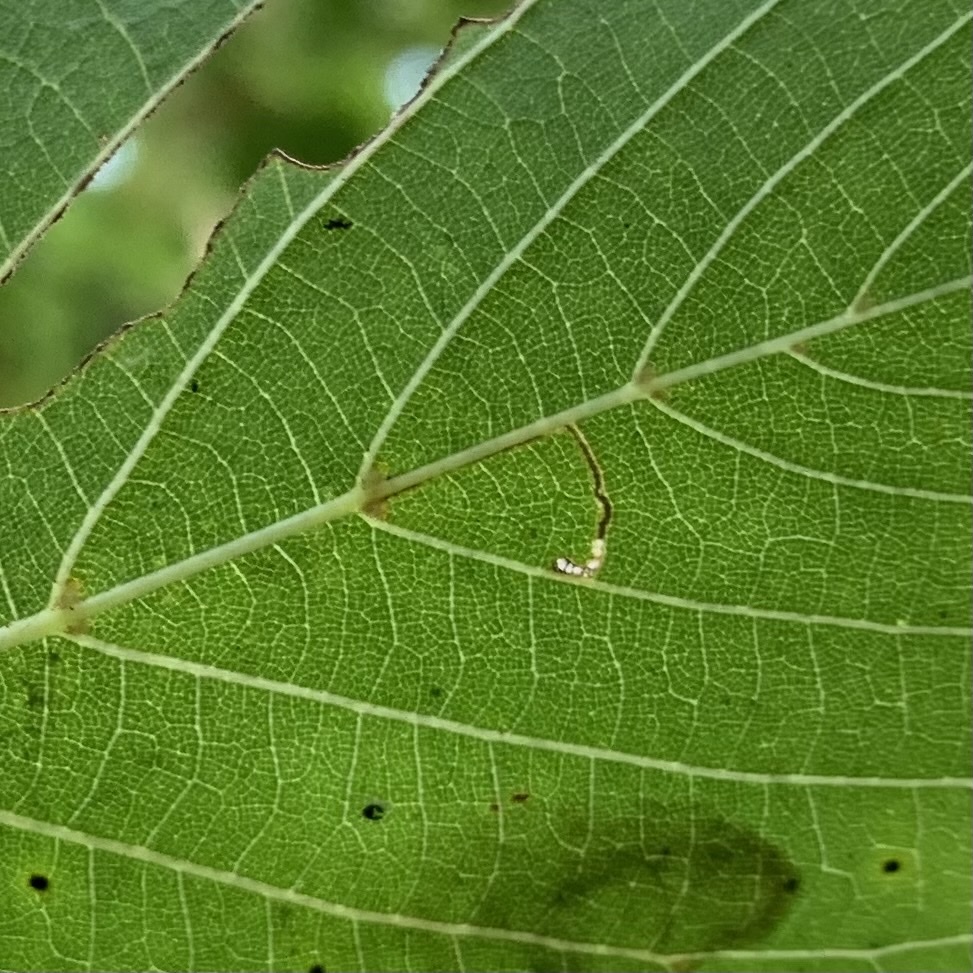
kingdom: Animalia
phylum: Arthropoda
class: Insecta
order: Lepidoptera
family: Bucculatricidae
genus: Bucculatrix
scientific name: Bucculatrix improvisa
